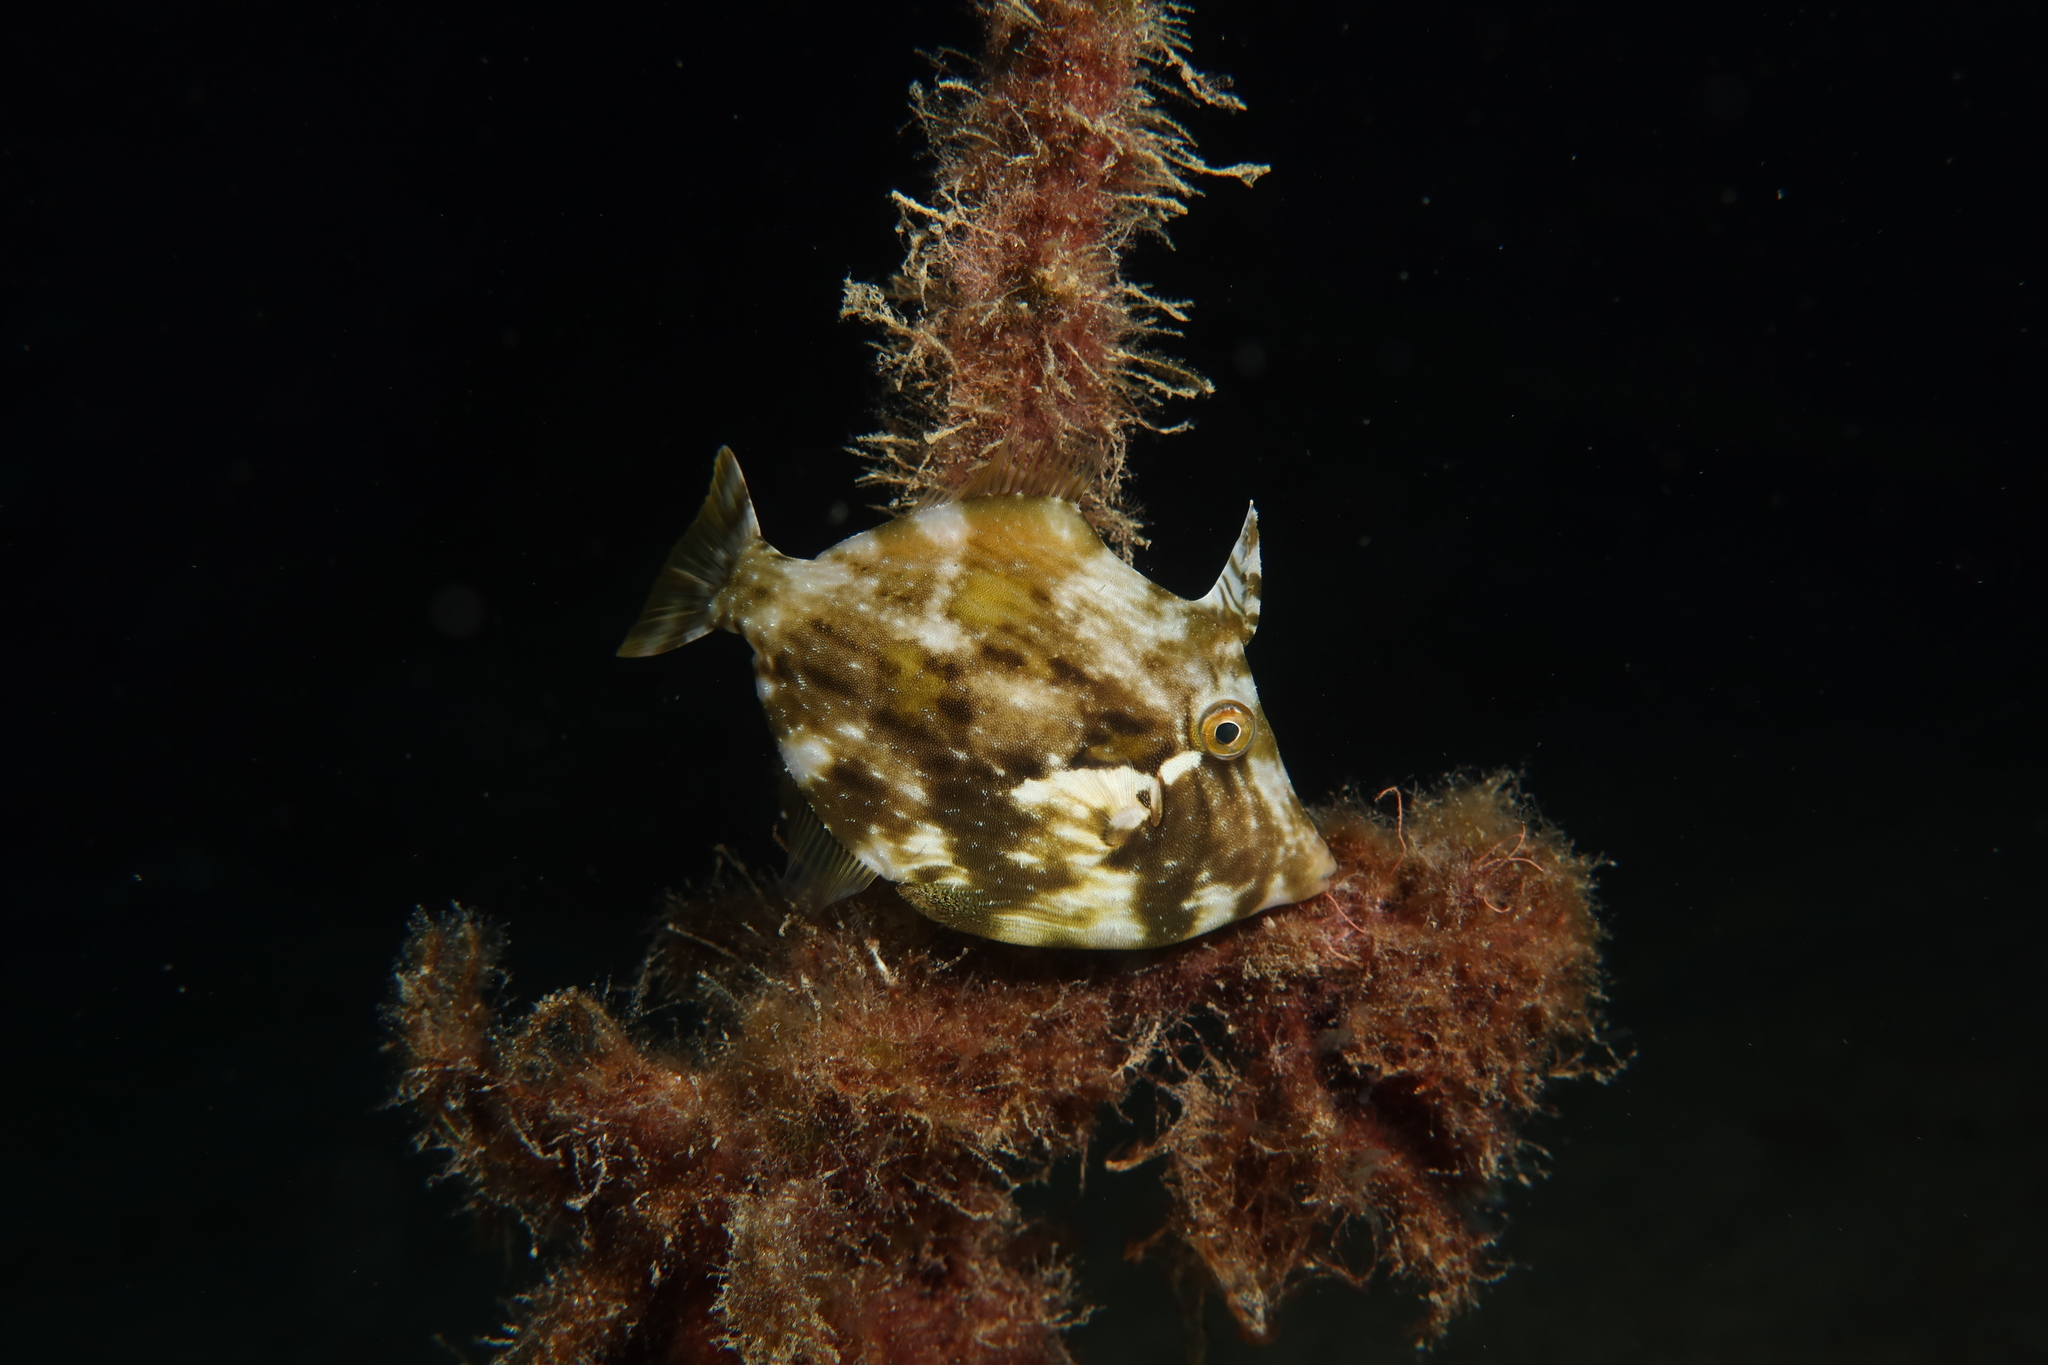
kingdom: Animalia
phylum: Chordata
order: Tetraodontiformes
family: Monacanthidae
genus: Stephanolepis
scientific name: Stephanolepis hispidus
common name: Planehead filefish
